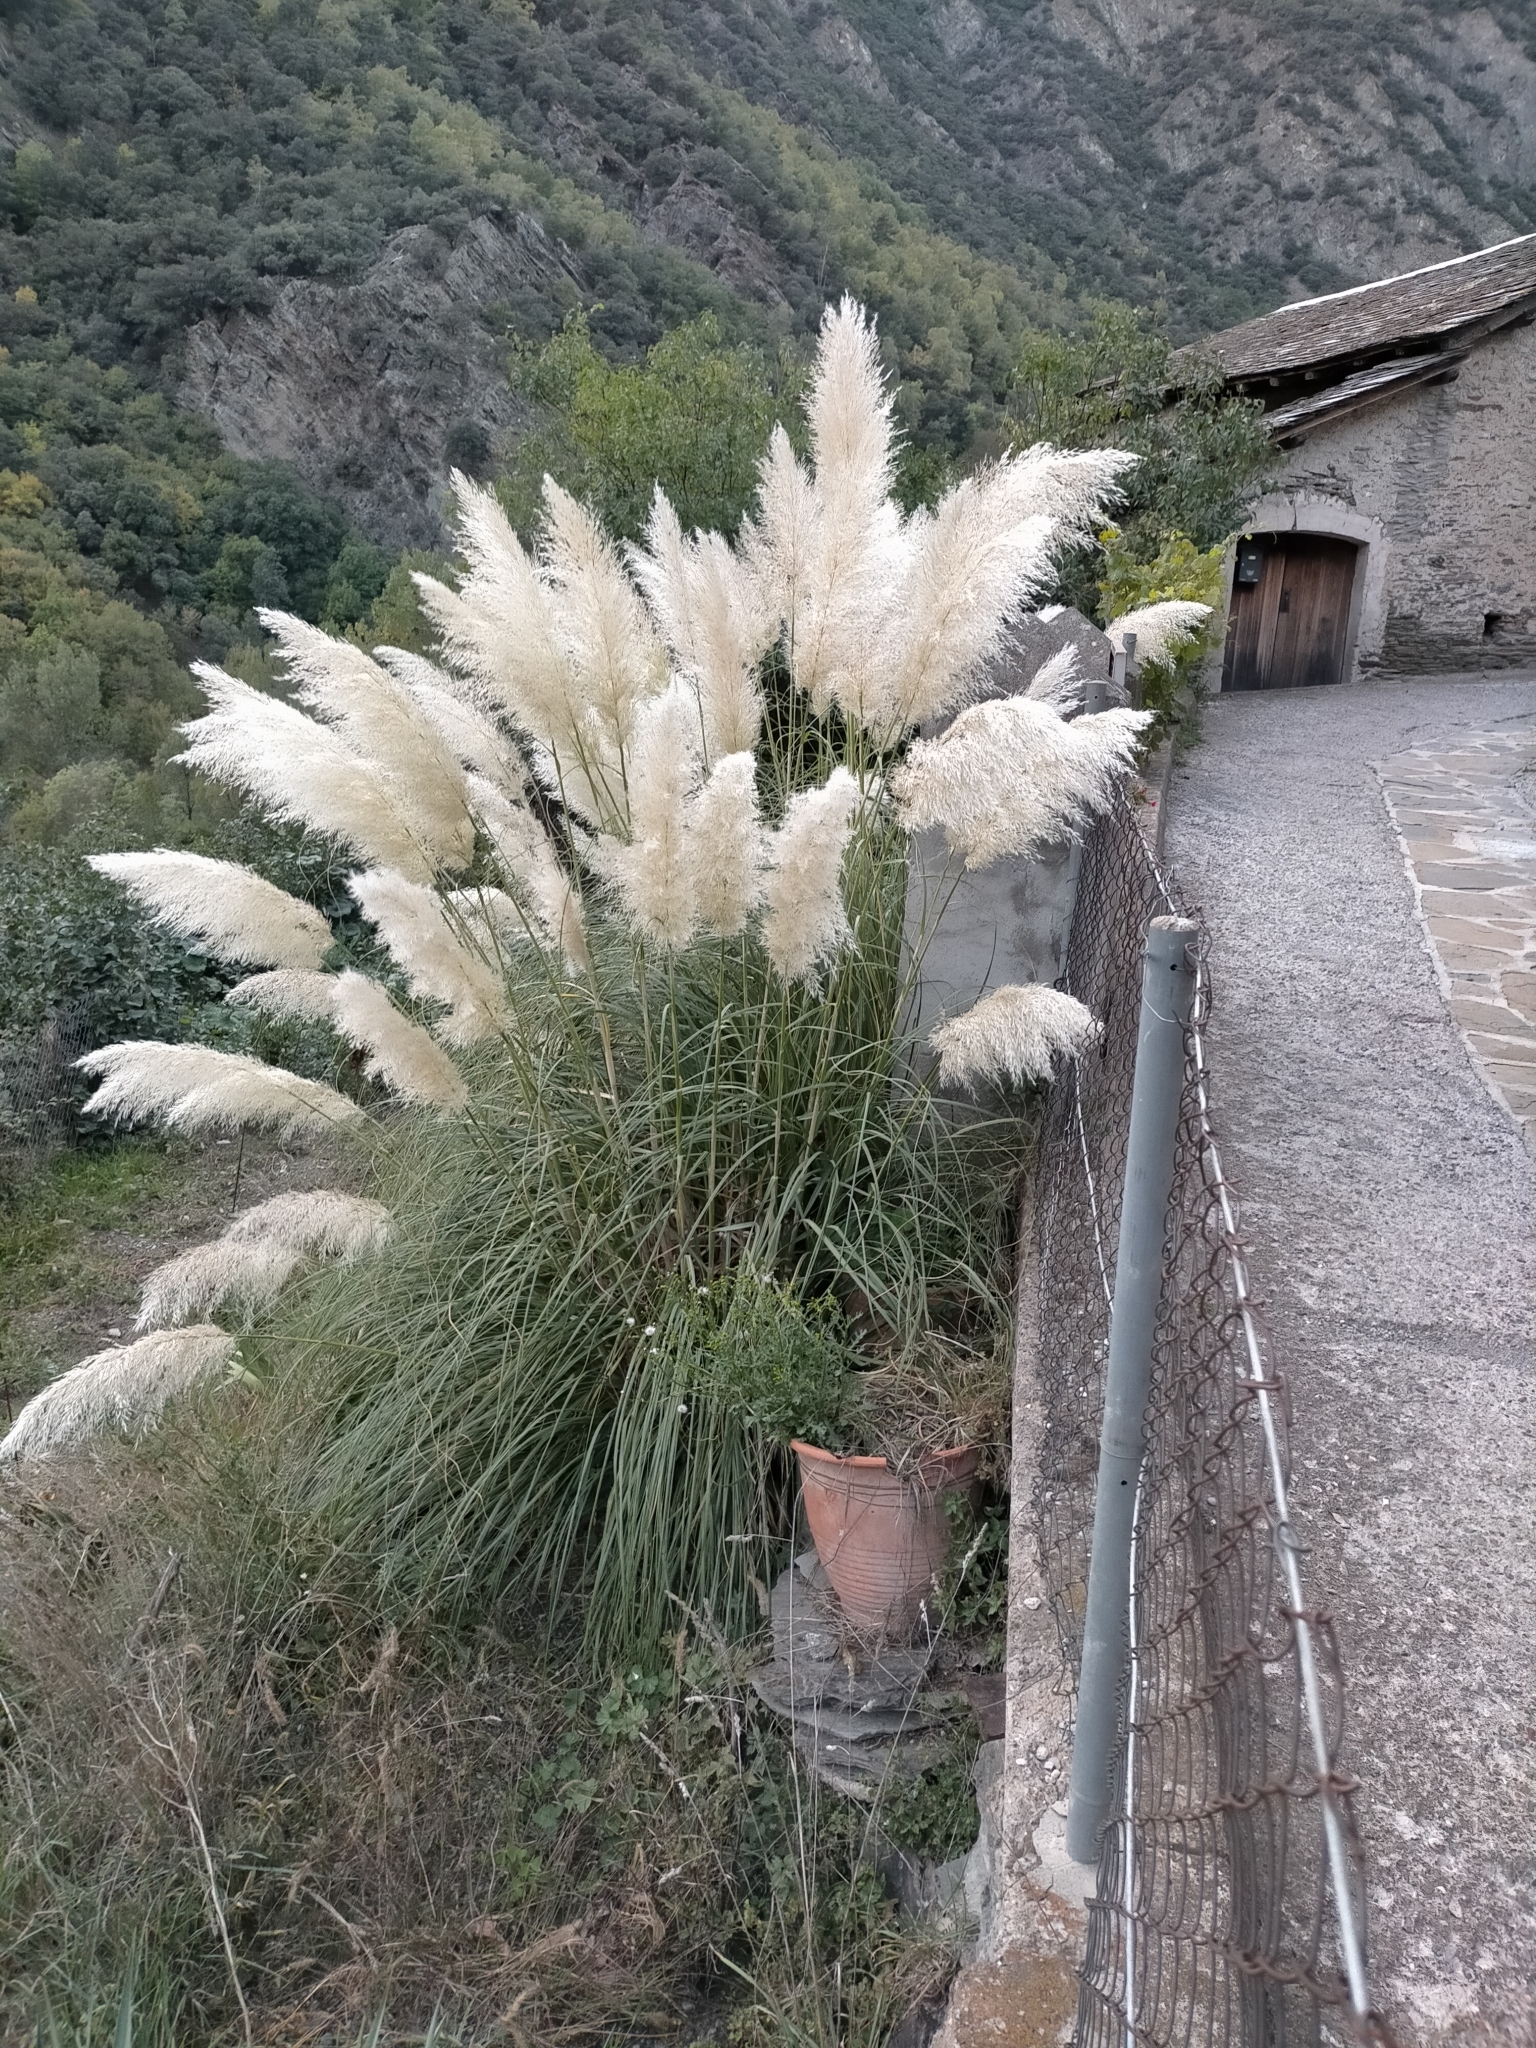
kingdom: Plantae
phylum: Tracheophyta
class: Liliopsida
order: Poales
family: Poaceae
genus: Cortaderia
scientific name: Cortaderia selloana
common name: Uruguayan pampas grass
